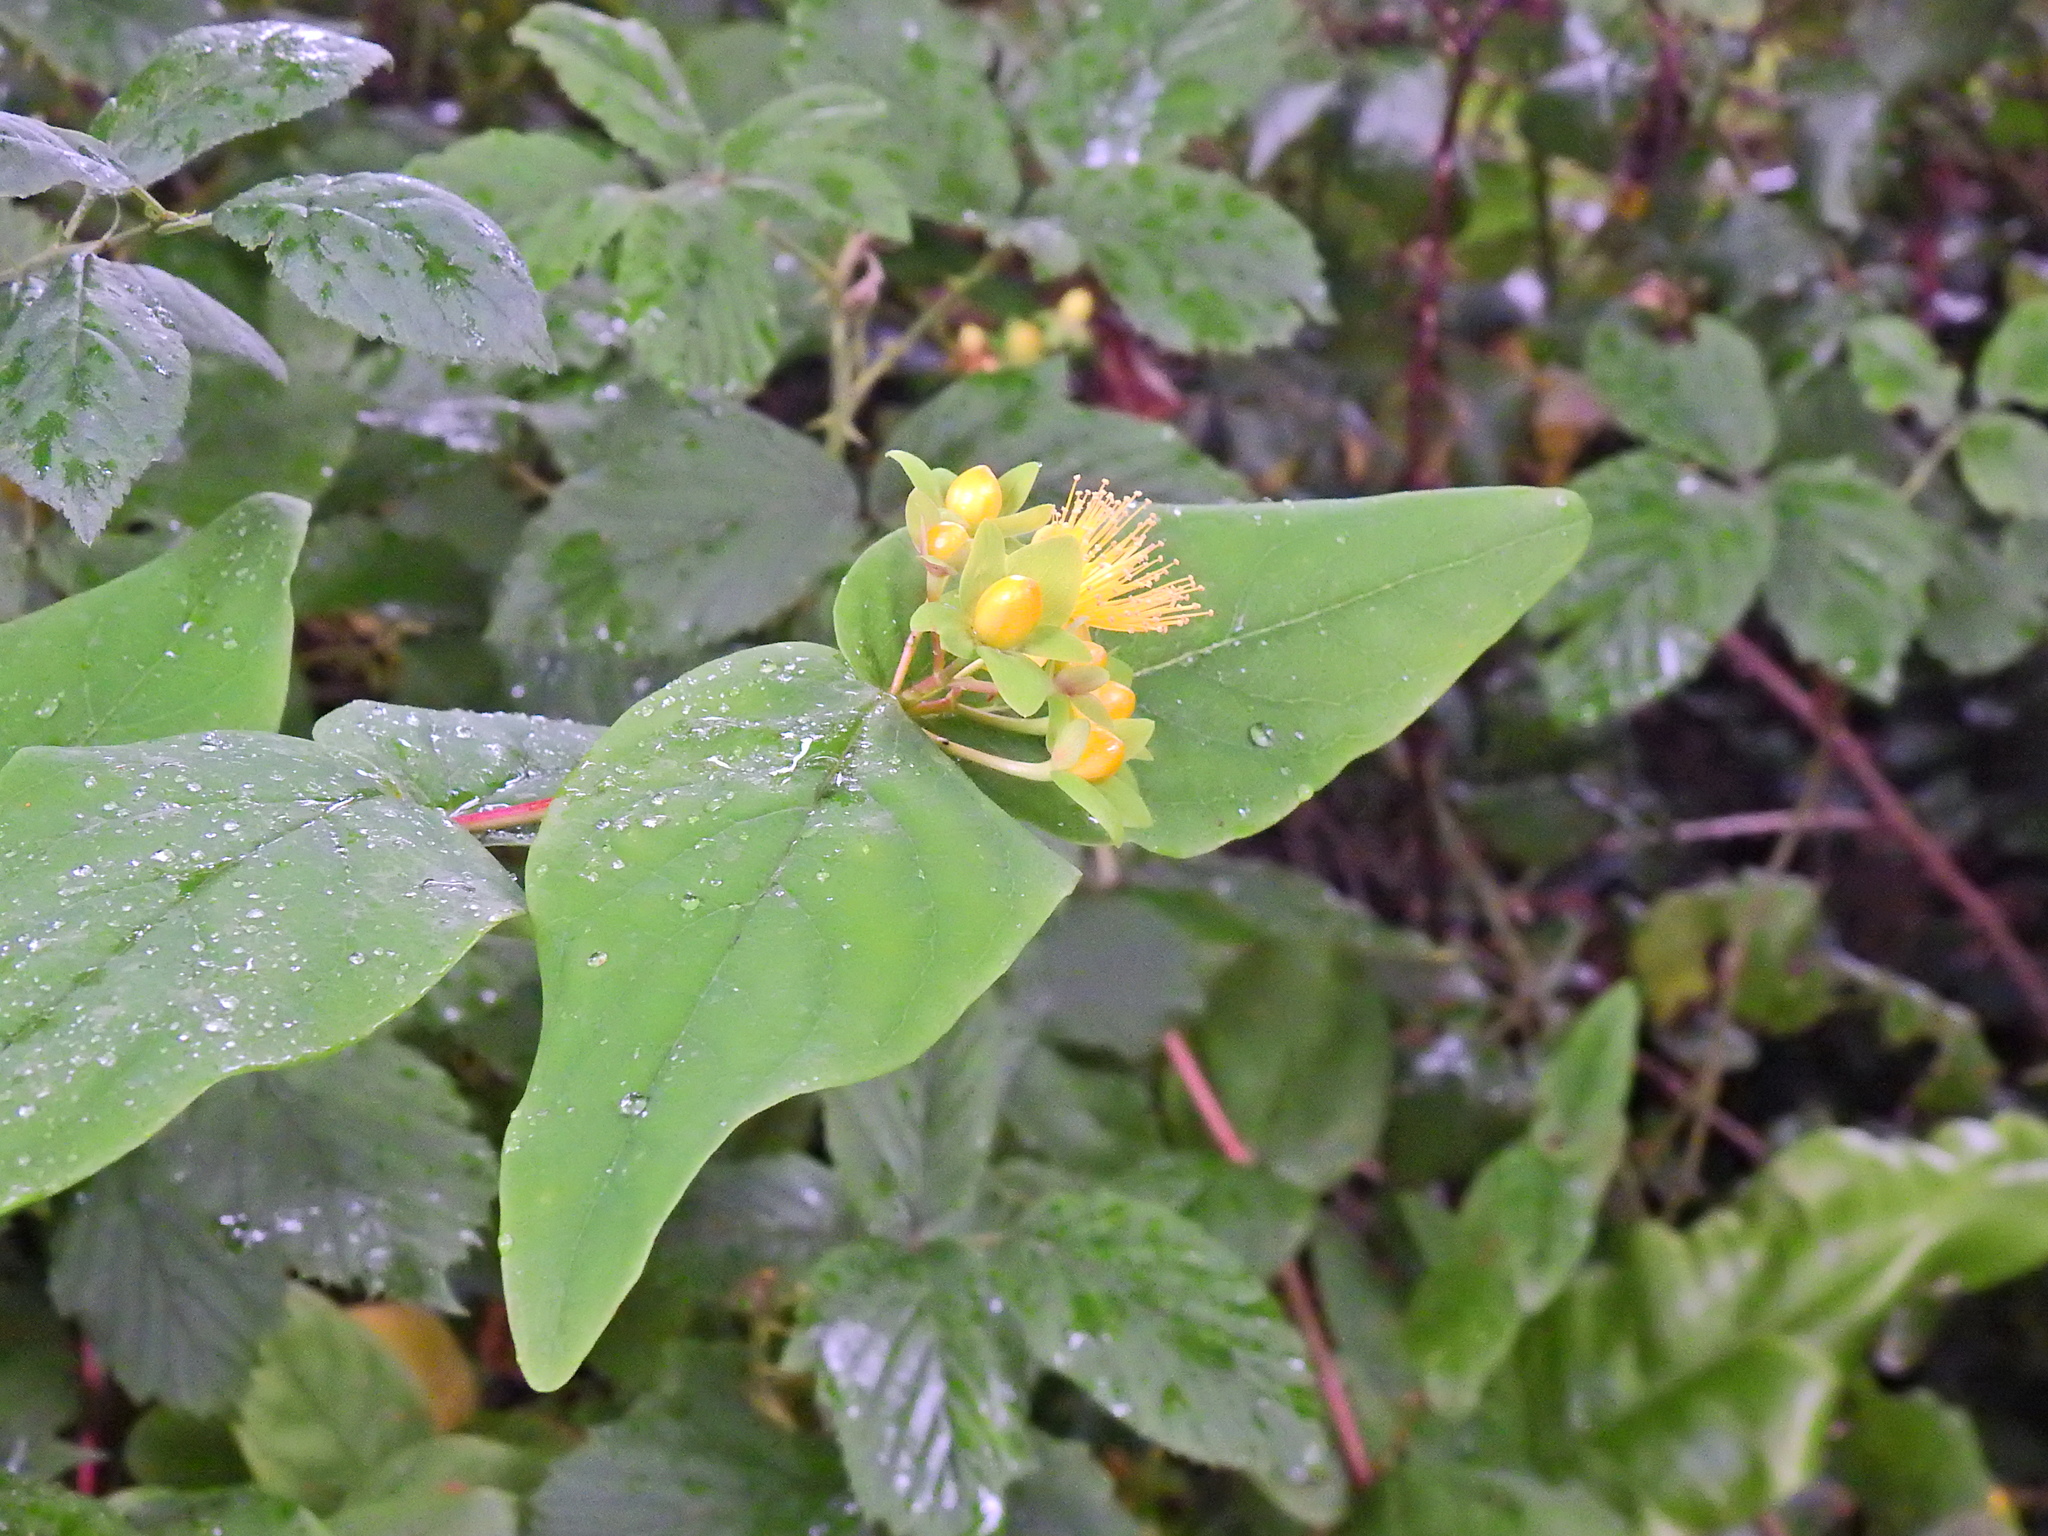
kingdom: Plantae
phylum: Tracheophyta
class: Magnoliopsida
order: Malpighiales
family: Hypericaceae
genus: Hypericum
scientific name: Hypericum androsaemum
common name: Sweet-amber
